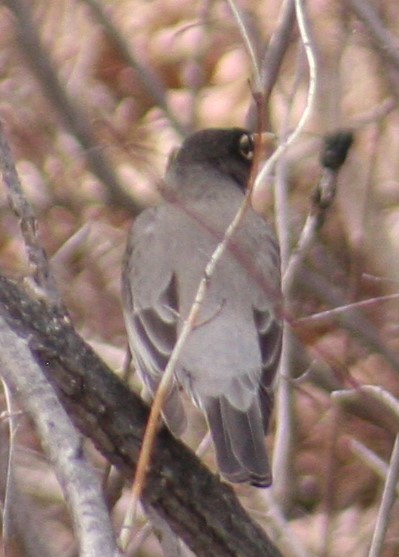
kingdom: Animalia
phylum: Chordata
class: Aves
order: Passeriformes
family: Turdidae
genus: Turdus
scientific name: Turdus migratorius
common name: American robin
